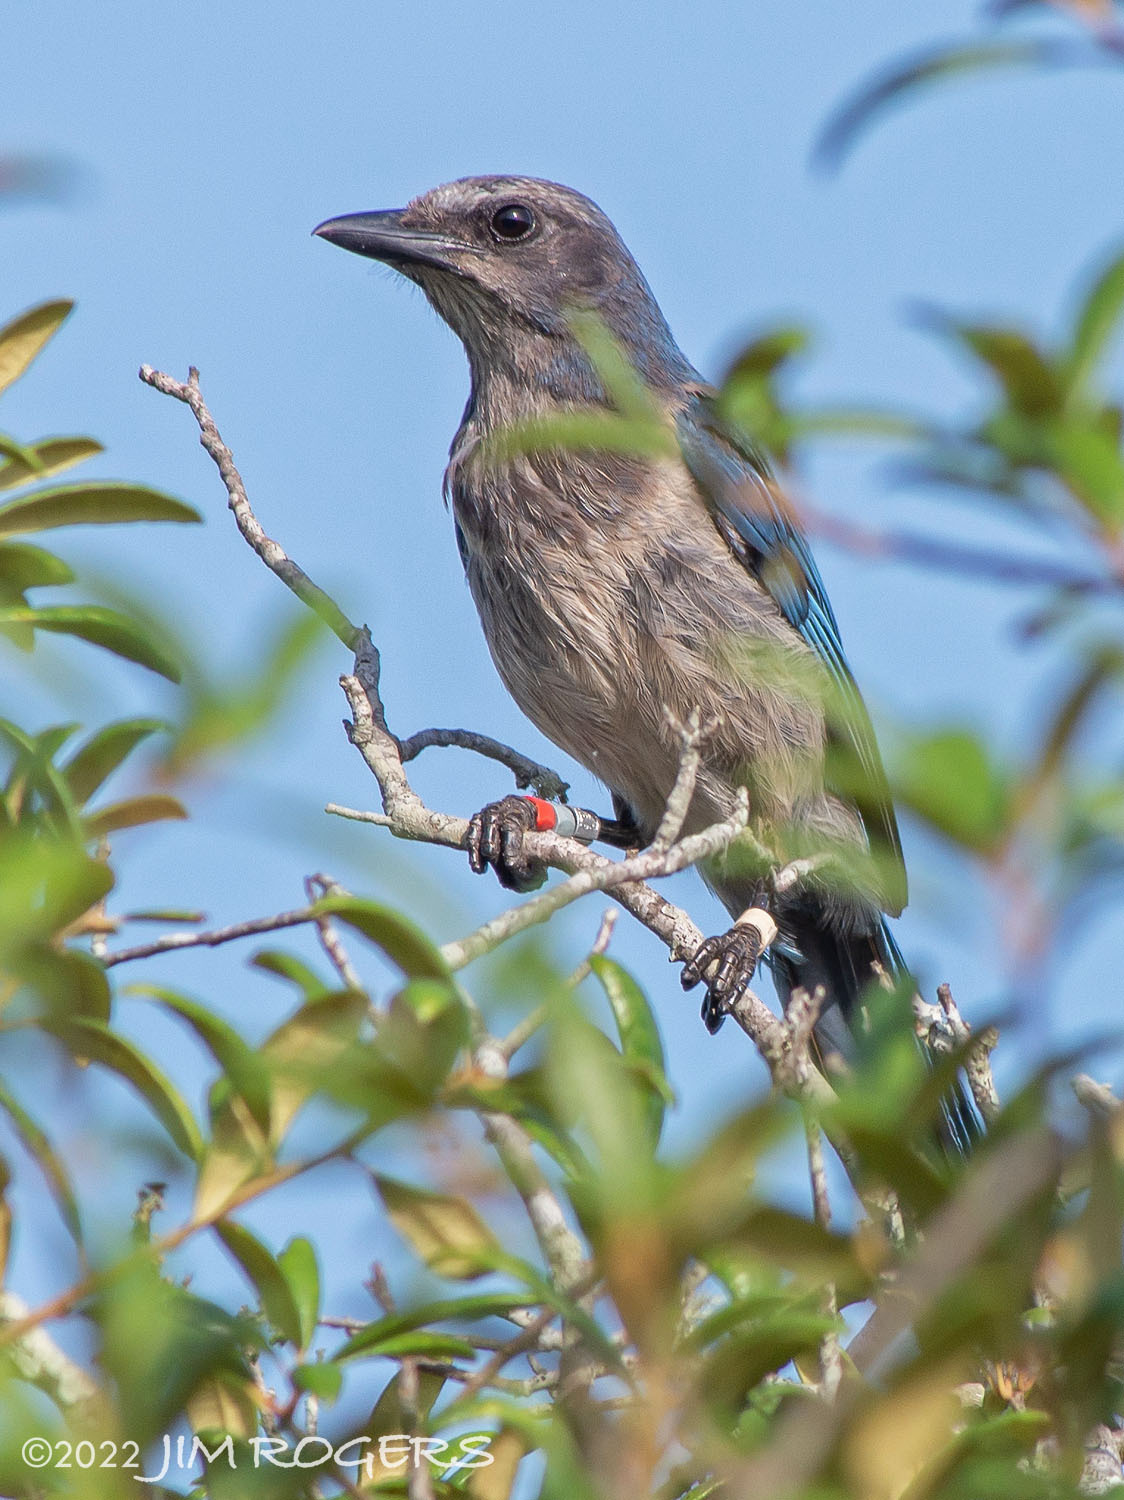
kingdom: Animalia
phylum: Chordata
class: Aves
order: Passeriformes
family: Corvidae
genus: Aphelocoma
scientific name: Aphelocoma coerulescens
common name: Florida scrub jay
